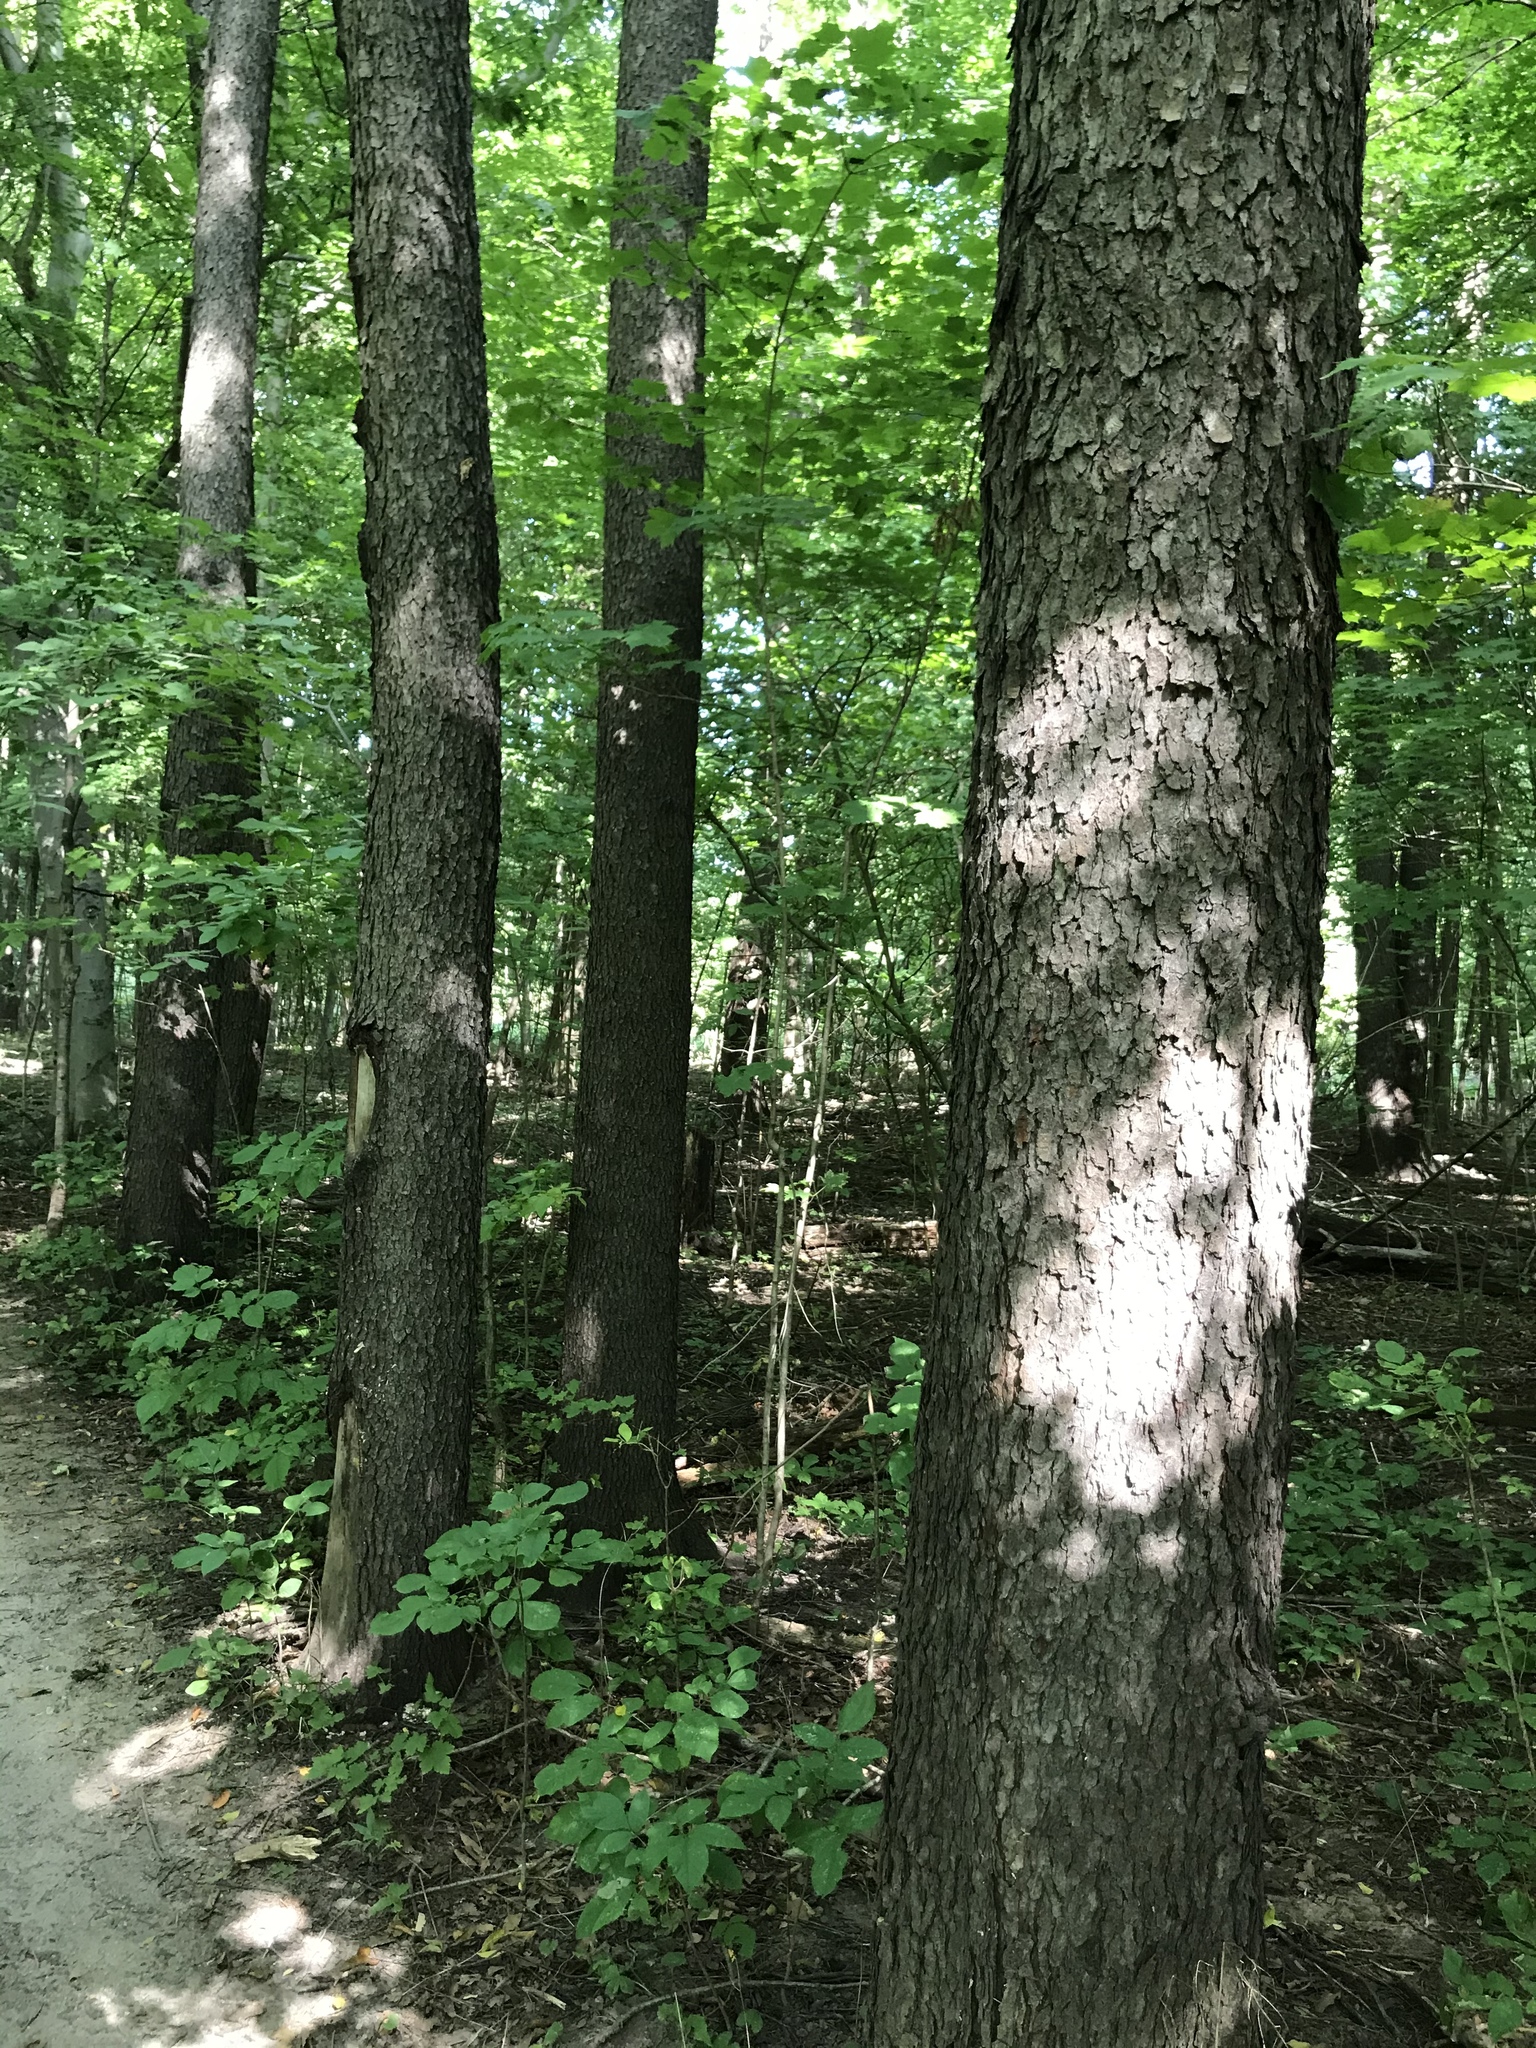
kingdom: Plantae
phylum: Tracheophyta
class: Magnoliopsida
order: Rosales
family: Rosaceae
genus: Prunus
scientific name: Prunus serotina
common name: Black cherry
